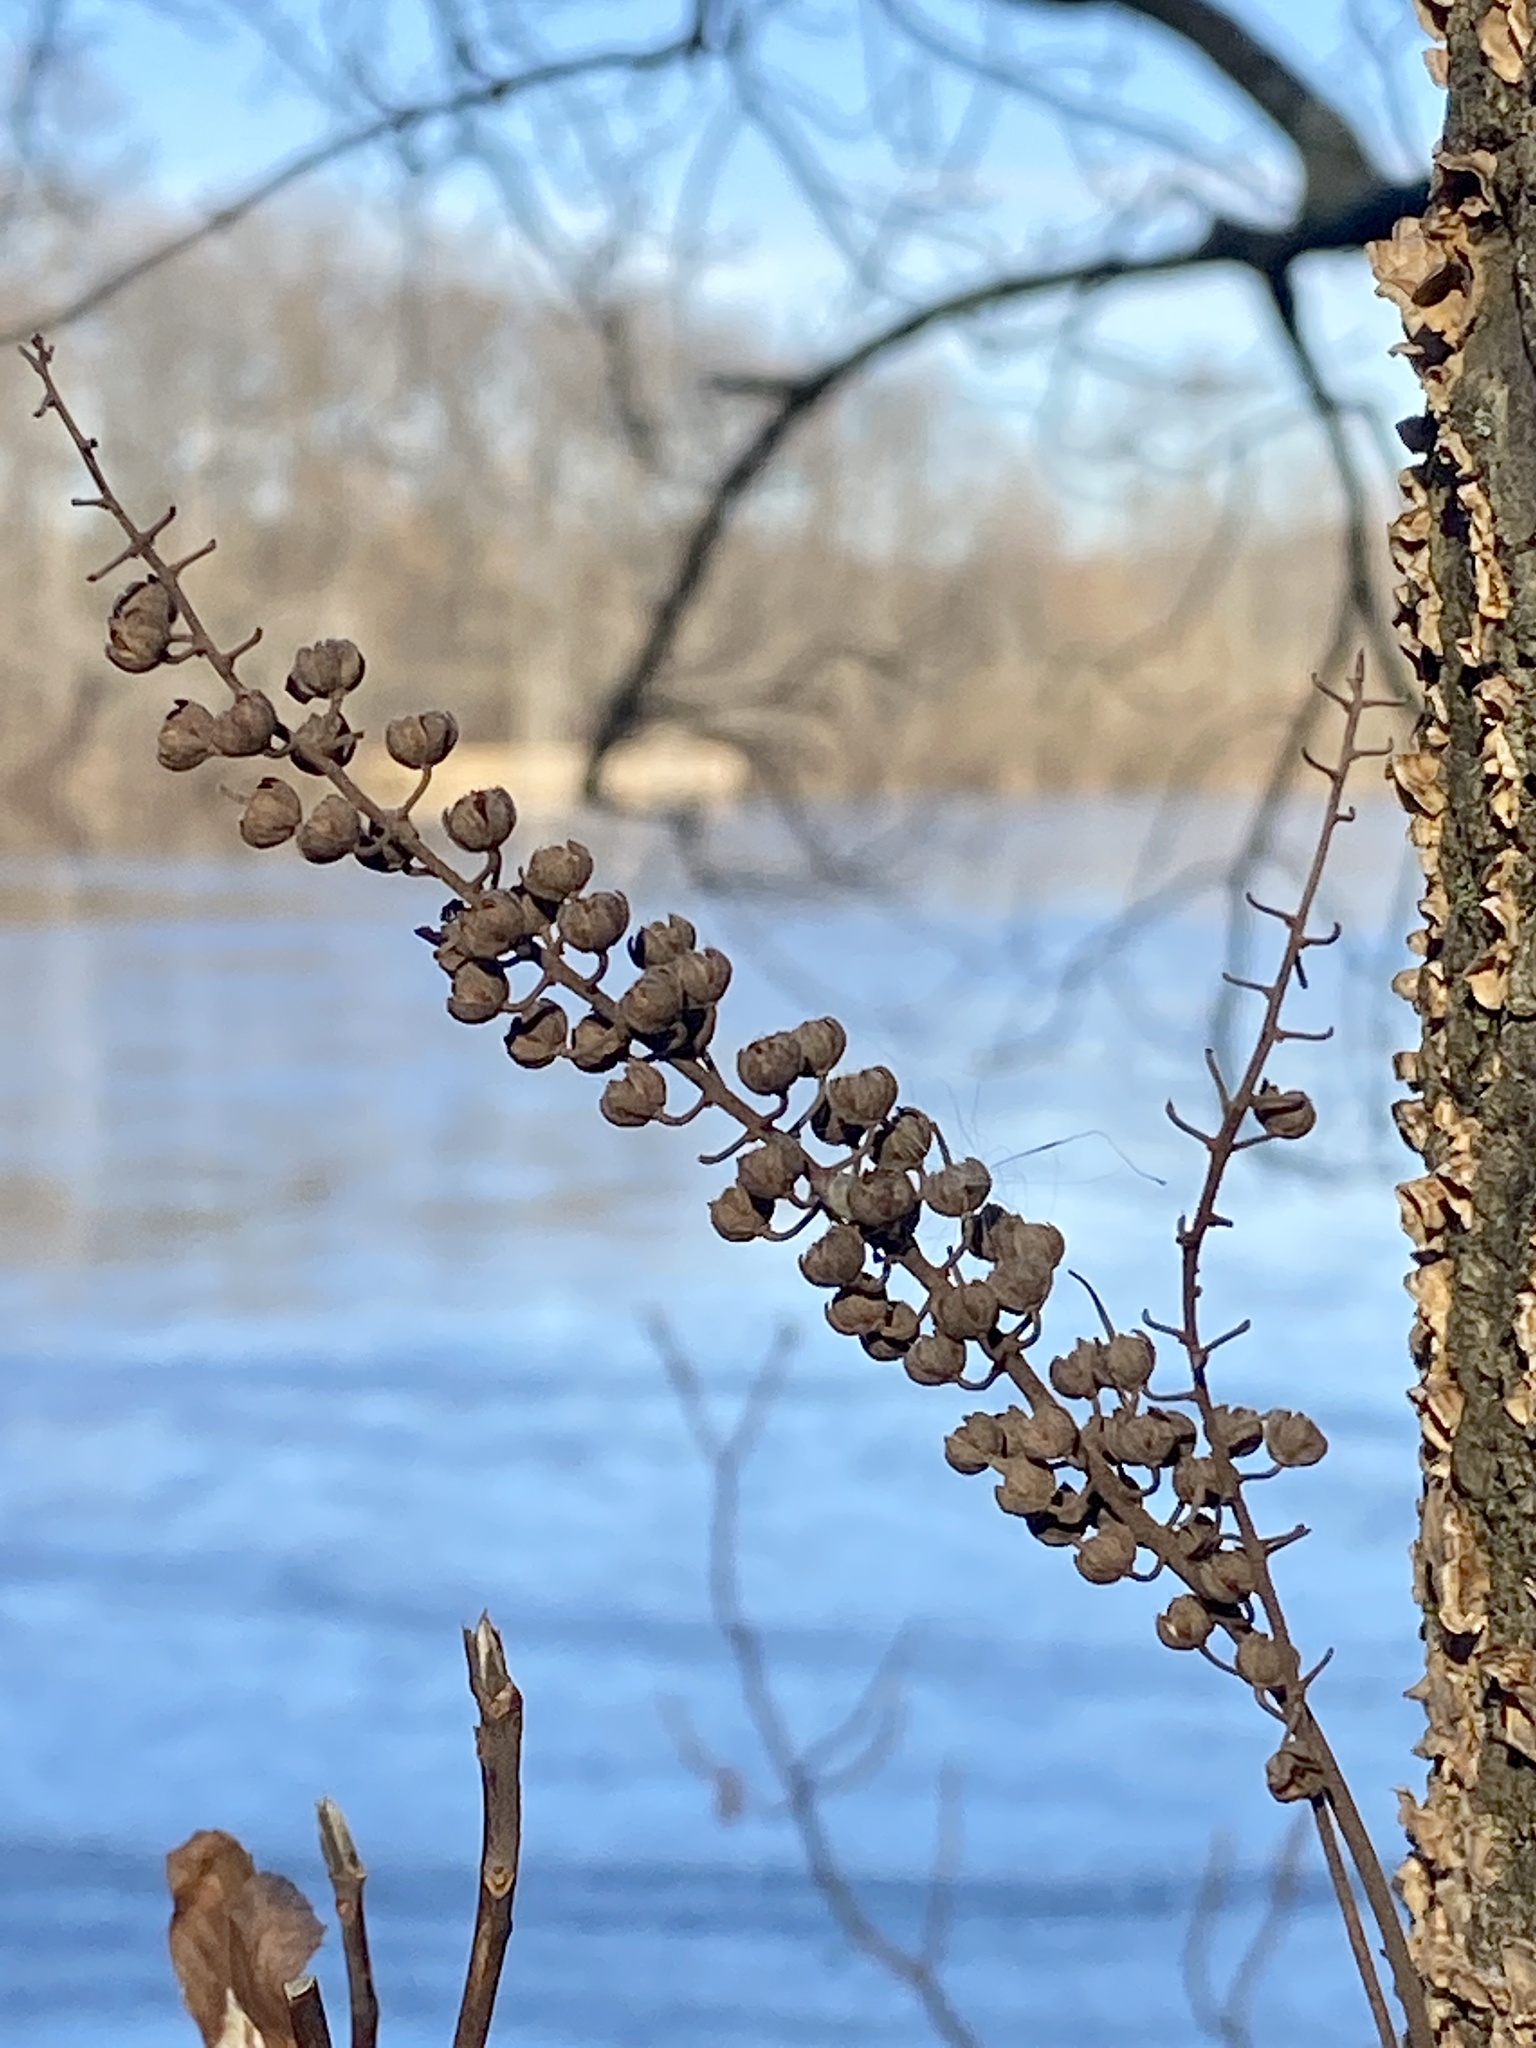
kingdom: Plantae
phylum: Tracheophyta
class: Magnoliopsida
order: Ericales
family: Clethraceae
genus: Clethra
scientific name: Clethra alnifolia
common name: Sweet pepperbush
